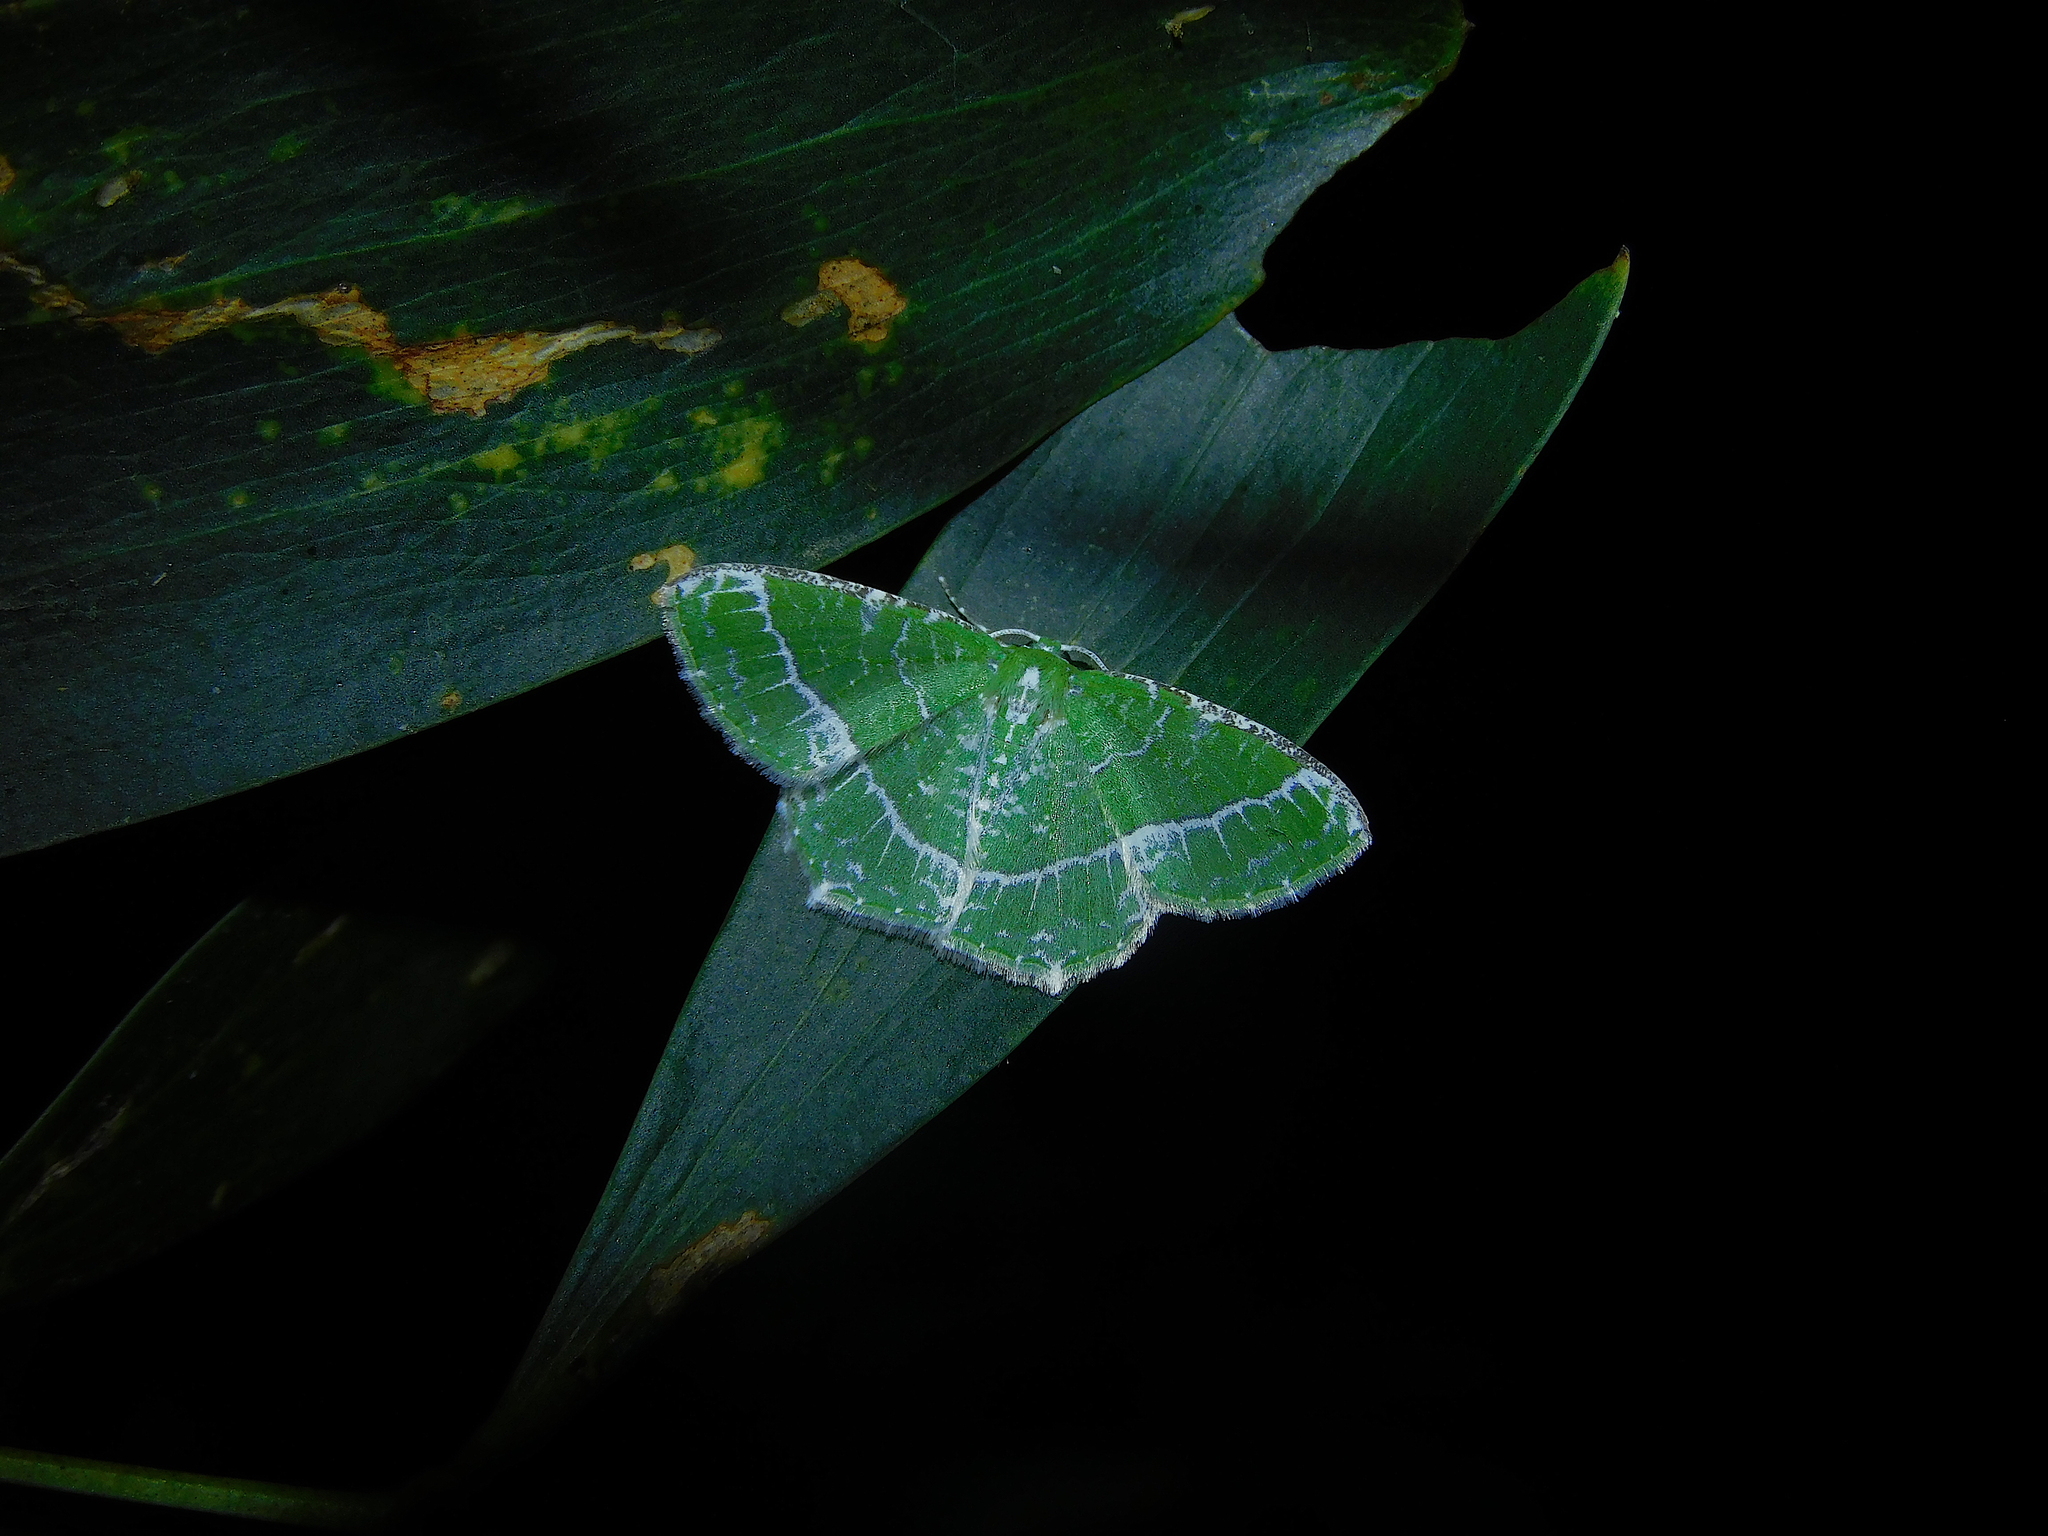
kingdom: Animalia
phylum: Arthropoda
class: Insecta
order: Lepidoptera
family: Geometridae
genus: Eucyclodes
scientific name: Eucyclodes insperata
